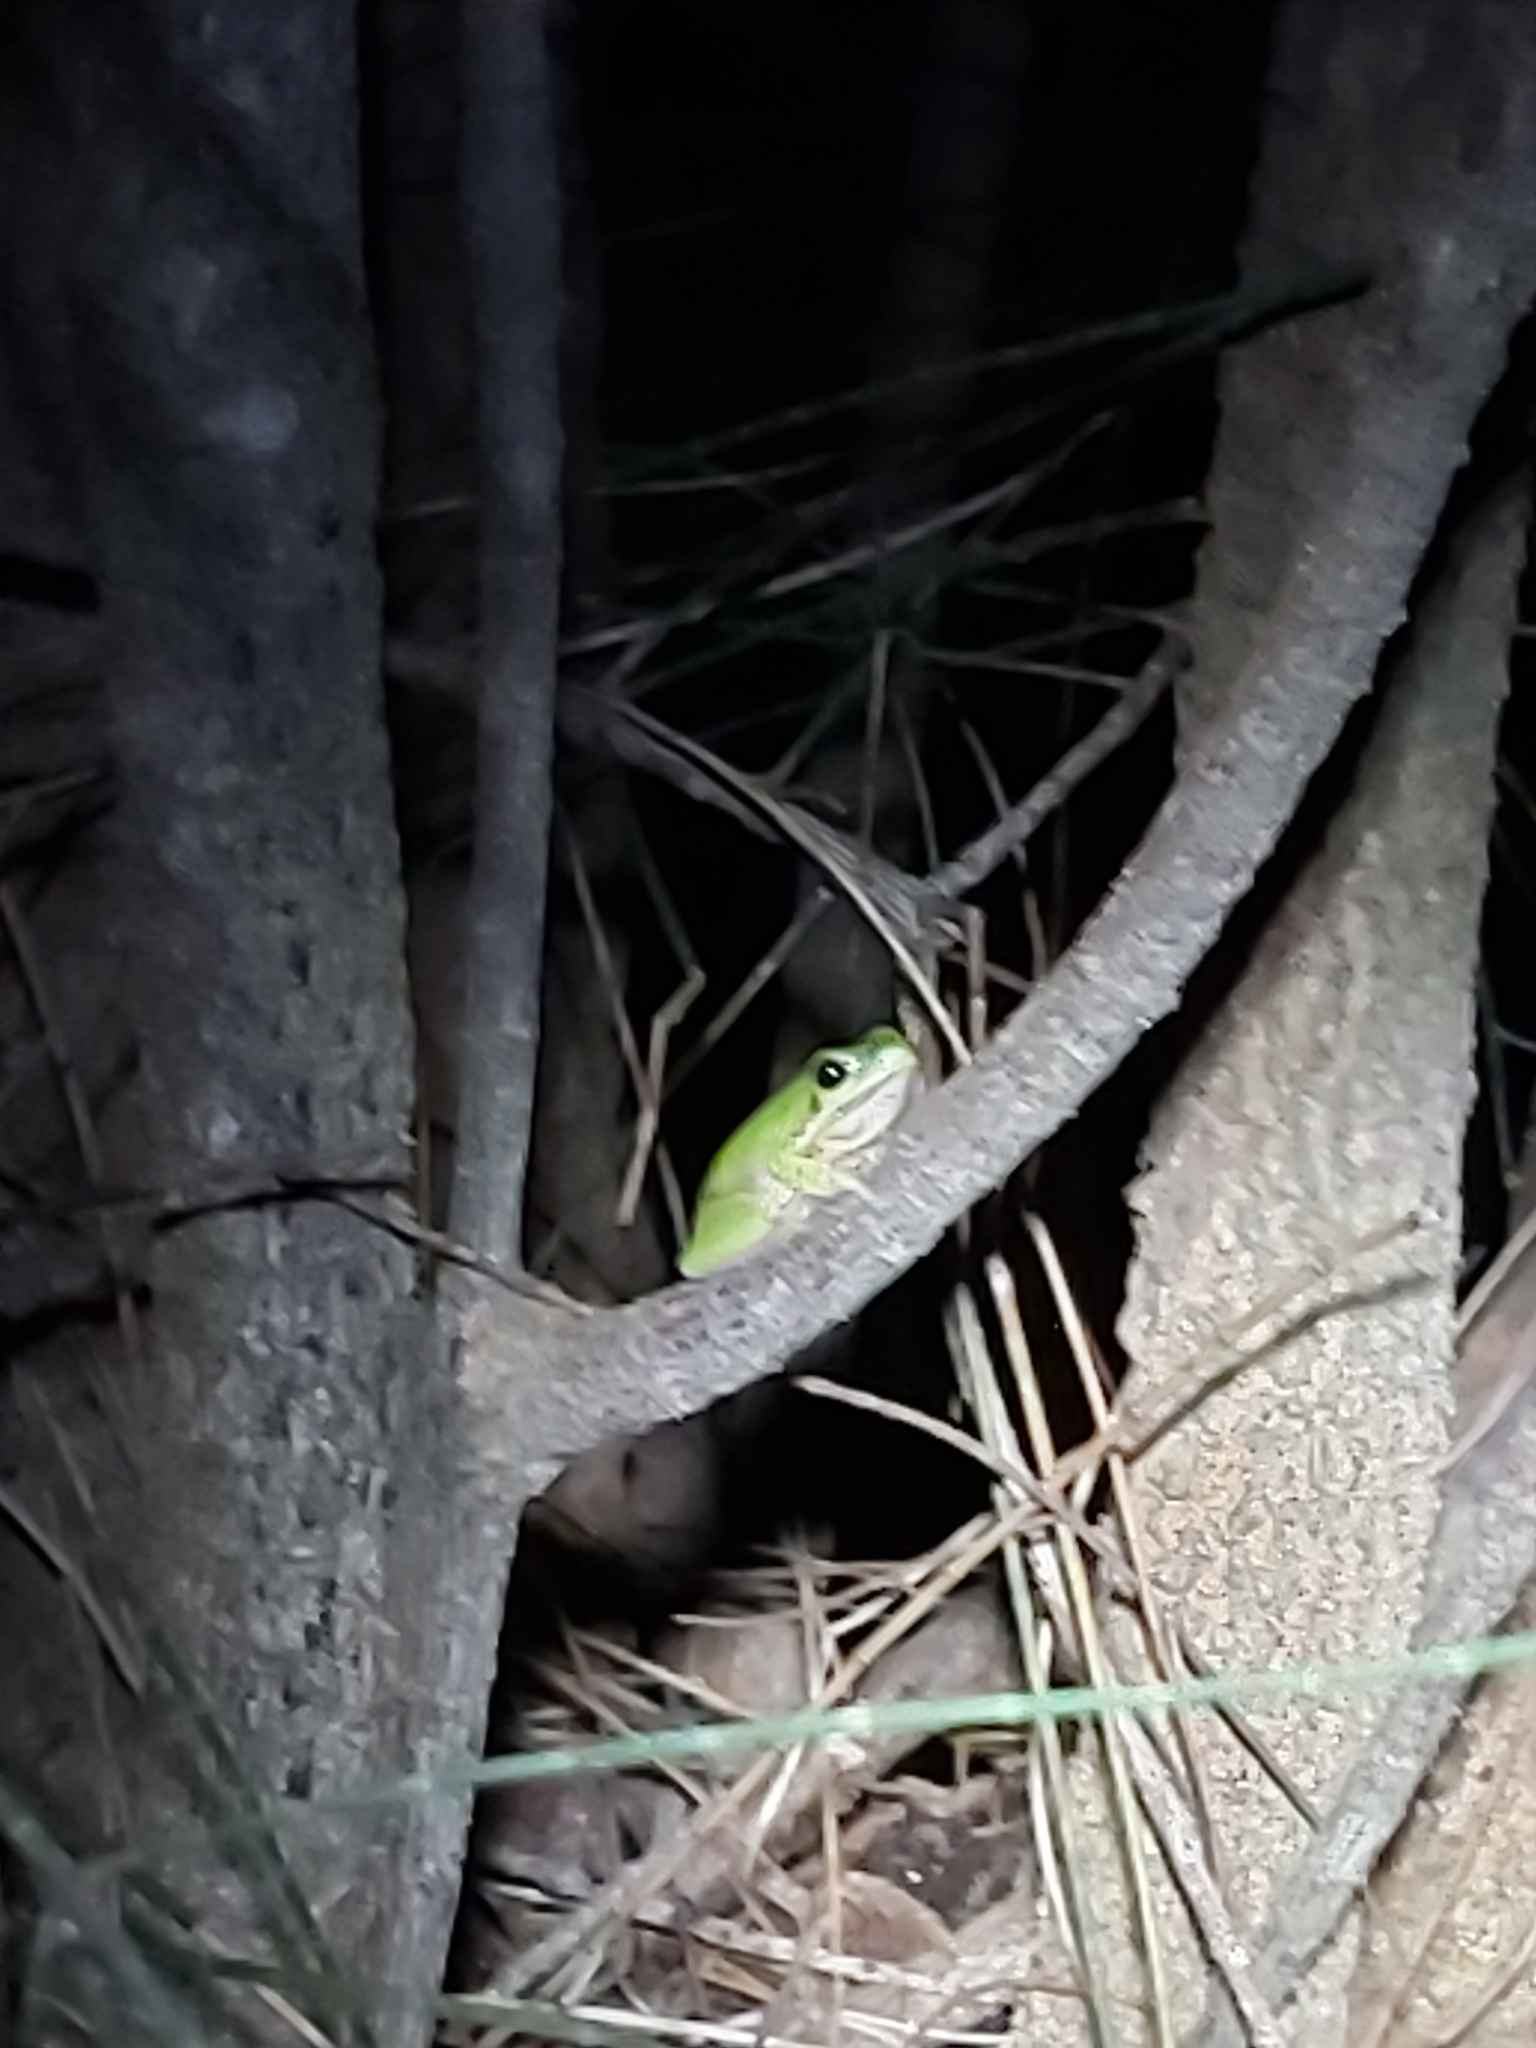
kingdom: Animalia
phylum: Chordata
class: Amphibia
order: Anura
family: Pelodryadidae
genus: Litoria
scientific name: Litoria fallax
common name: Eastern dwarf treefrog
